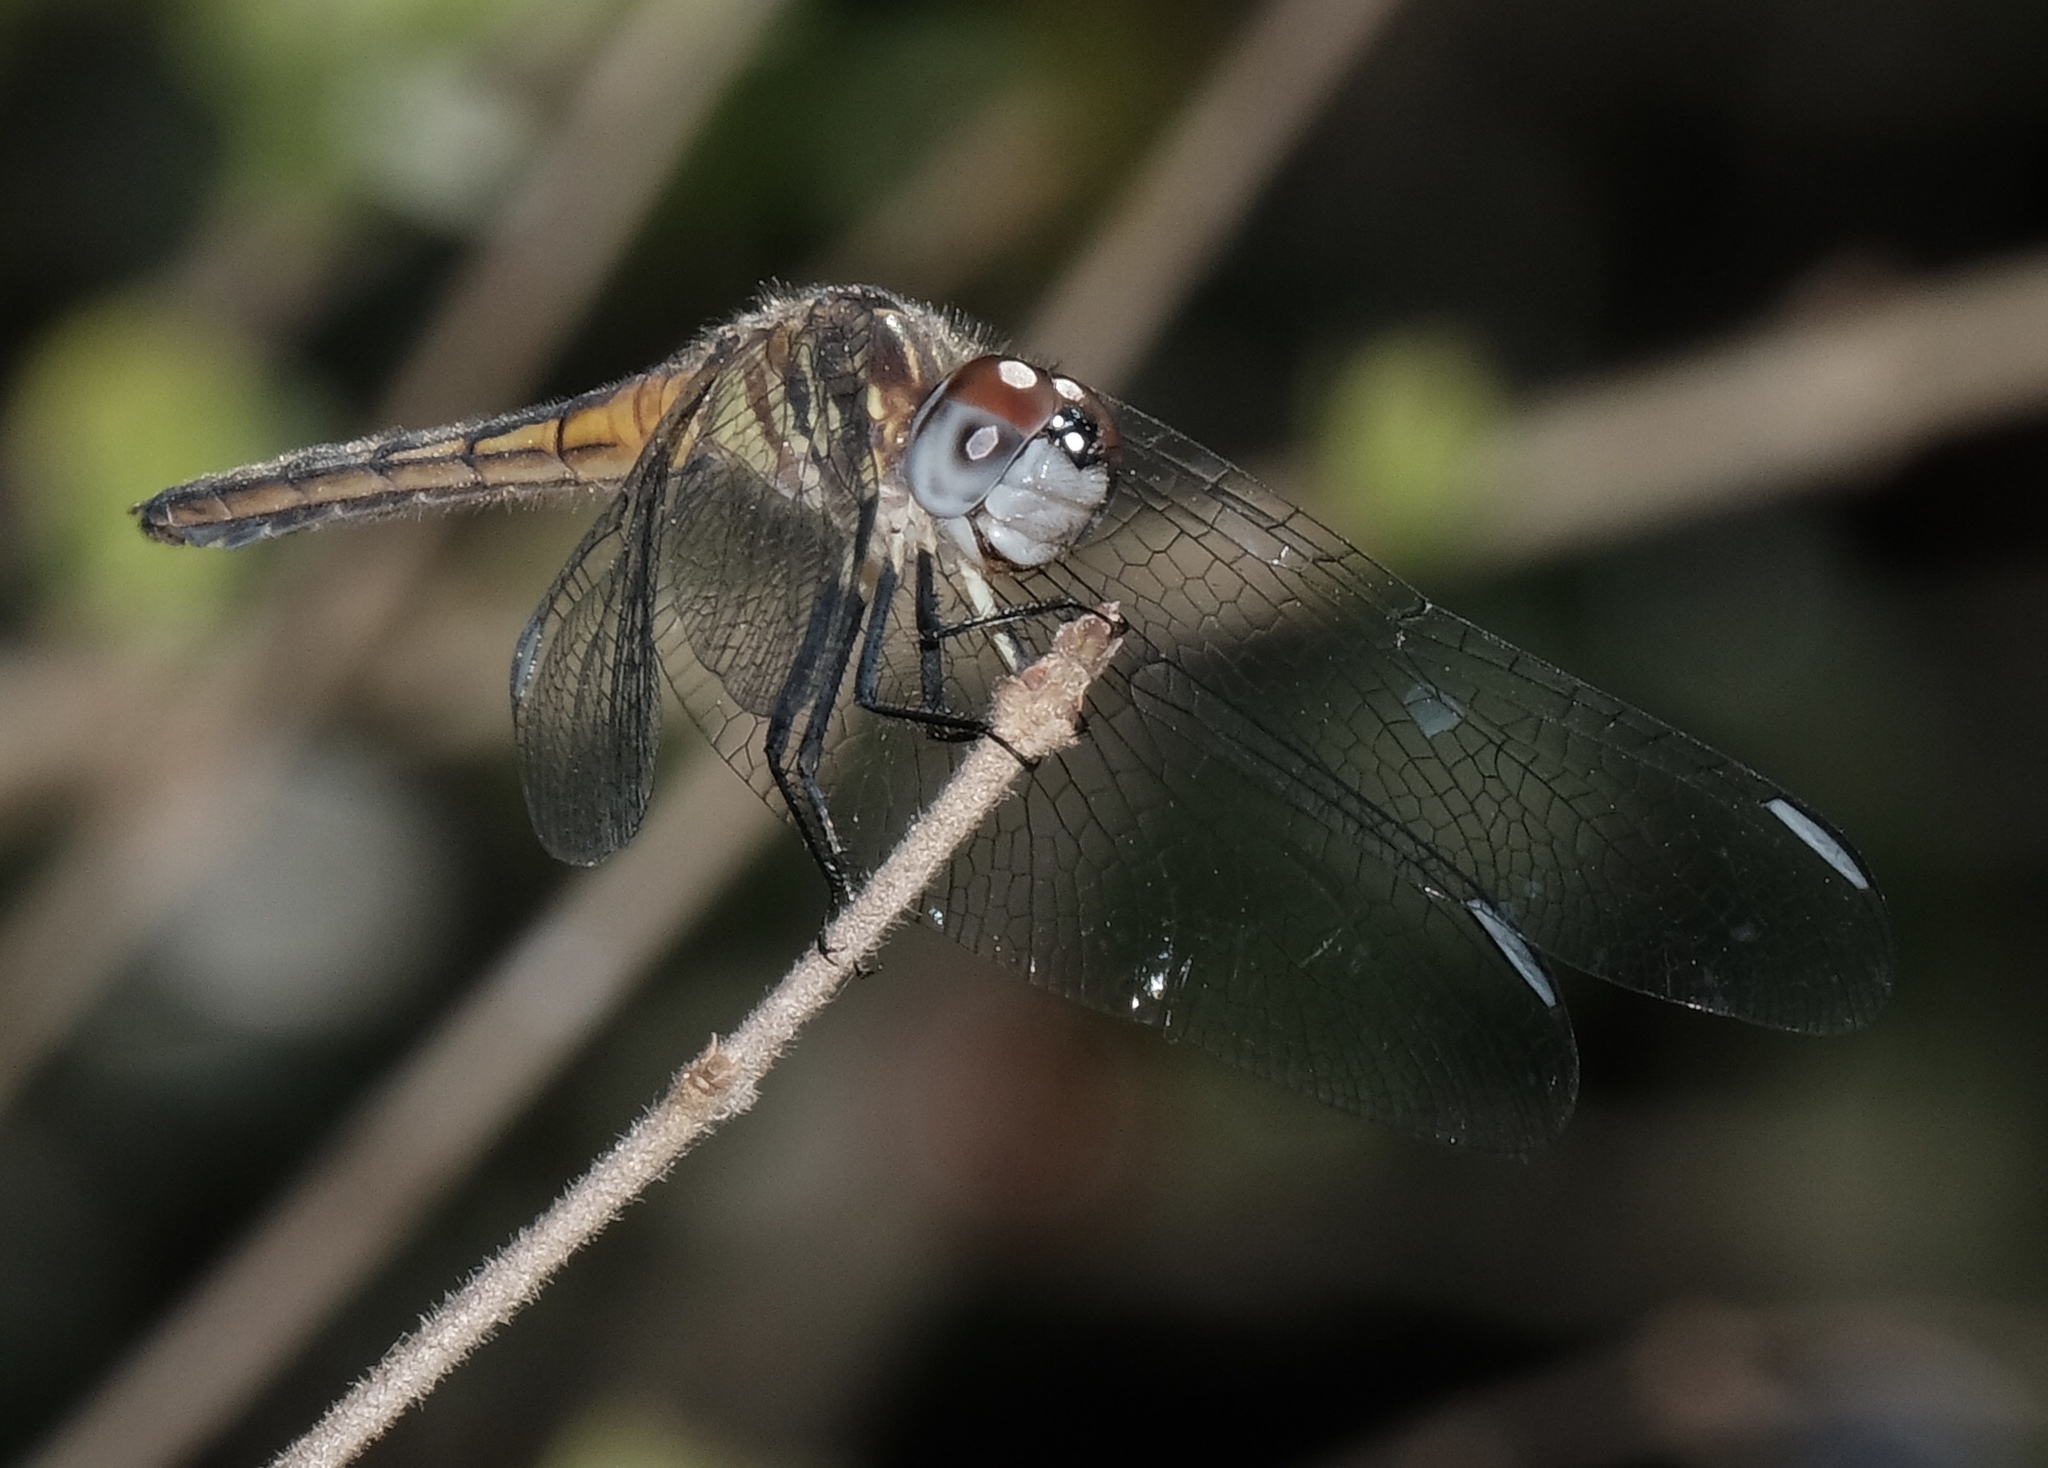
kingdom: Animalia
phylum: Arthropoda
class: Insecta
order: Odonata
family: Libellulidae
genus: Pachydiplax
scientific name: Pachydiplax longipennis
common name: Blue dasher
